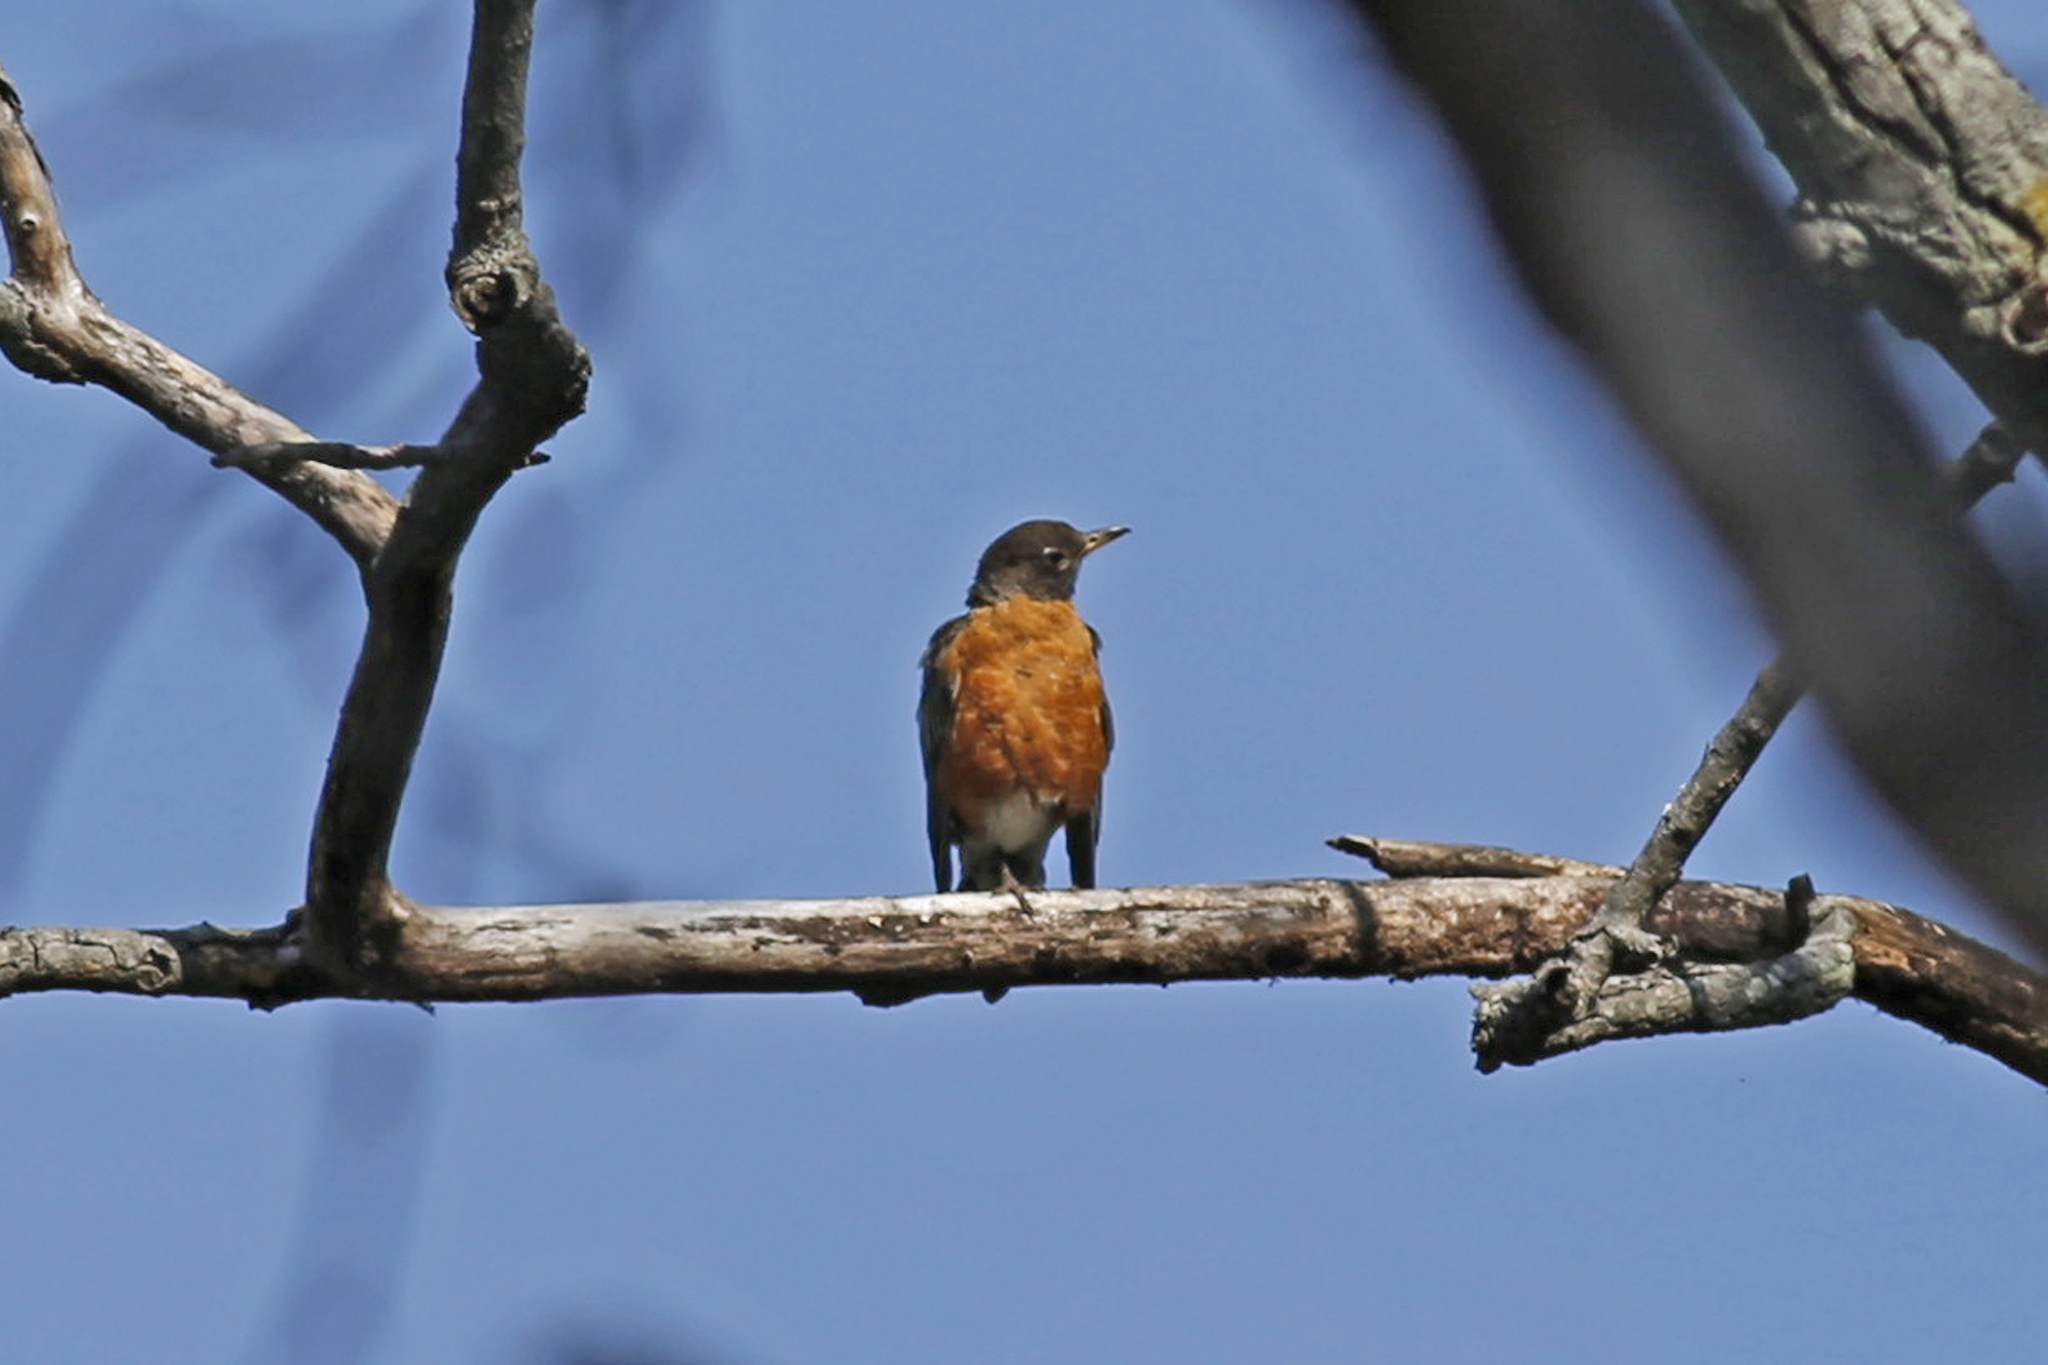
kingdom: Animalia
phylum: Chordata
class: Aves
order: Passeriformes
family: Turdidae
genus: Turdus
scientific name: Turdus migratorius
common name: American robin
